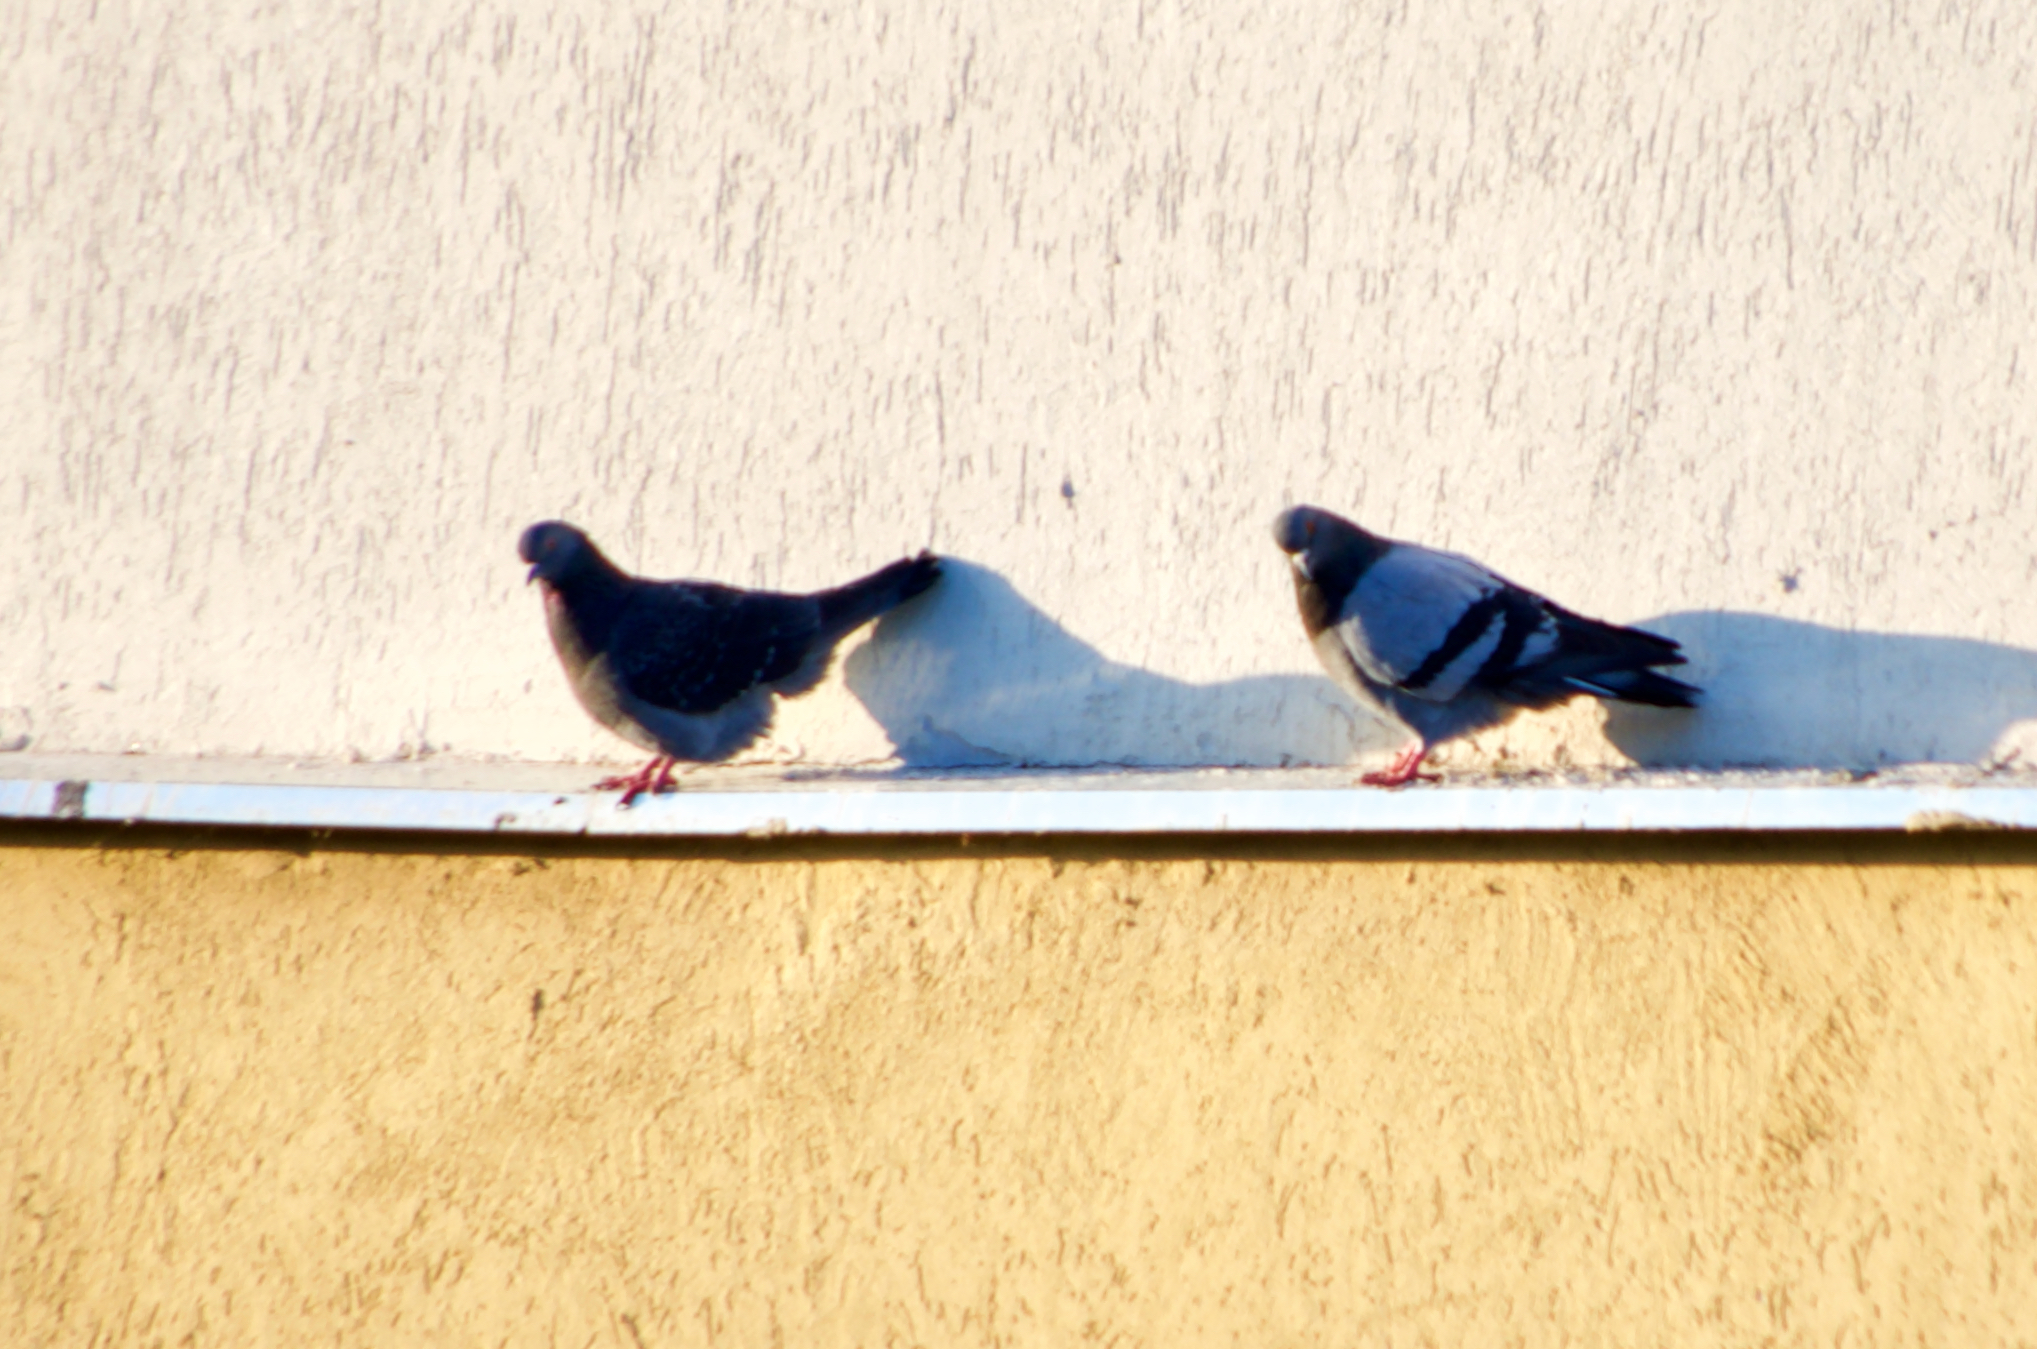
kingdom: Animalia
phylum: Chordata
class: Aves
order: Columbiformes
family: Columbidae
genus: Columba
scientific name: Columba livia
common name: Rock pigeon
